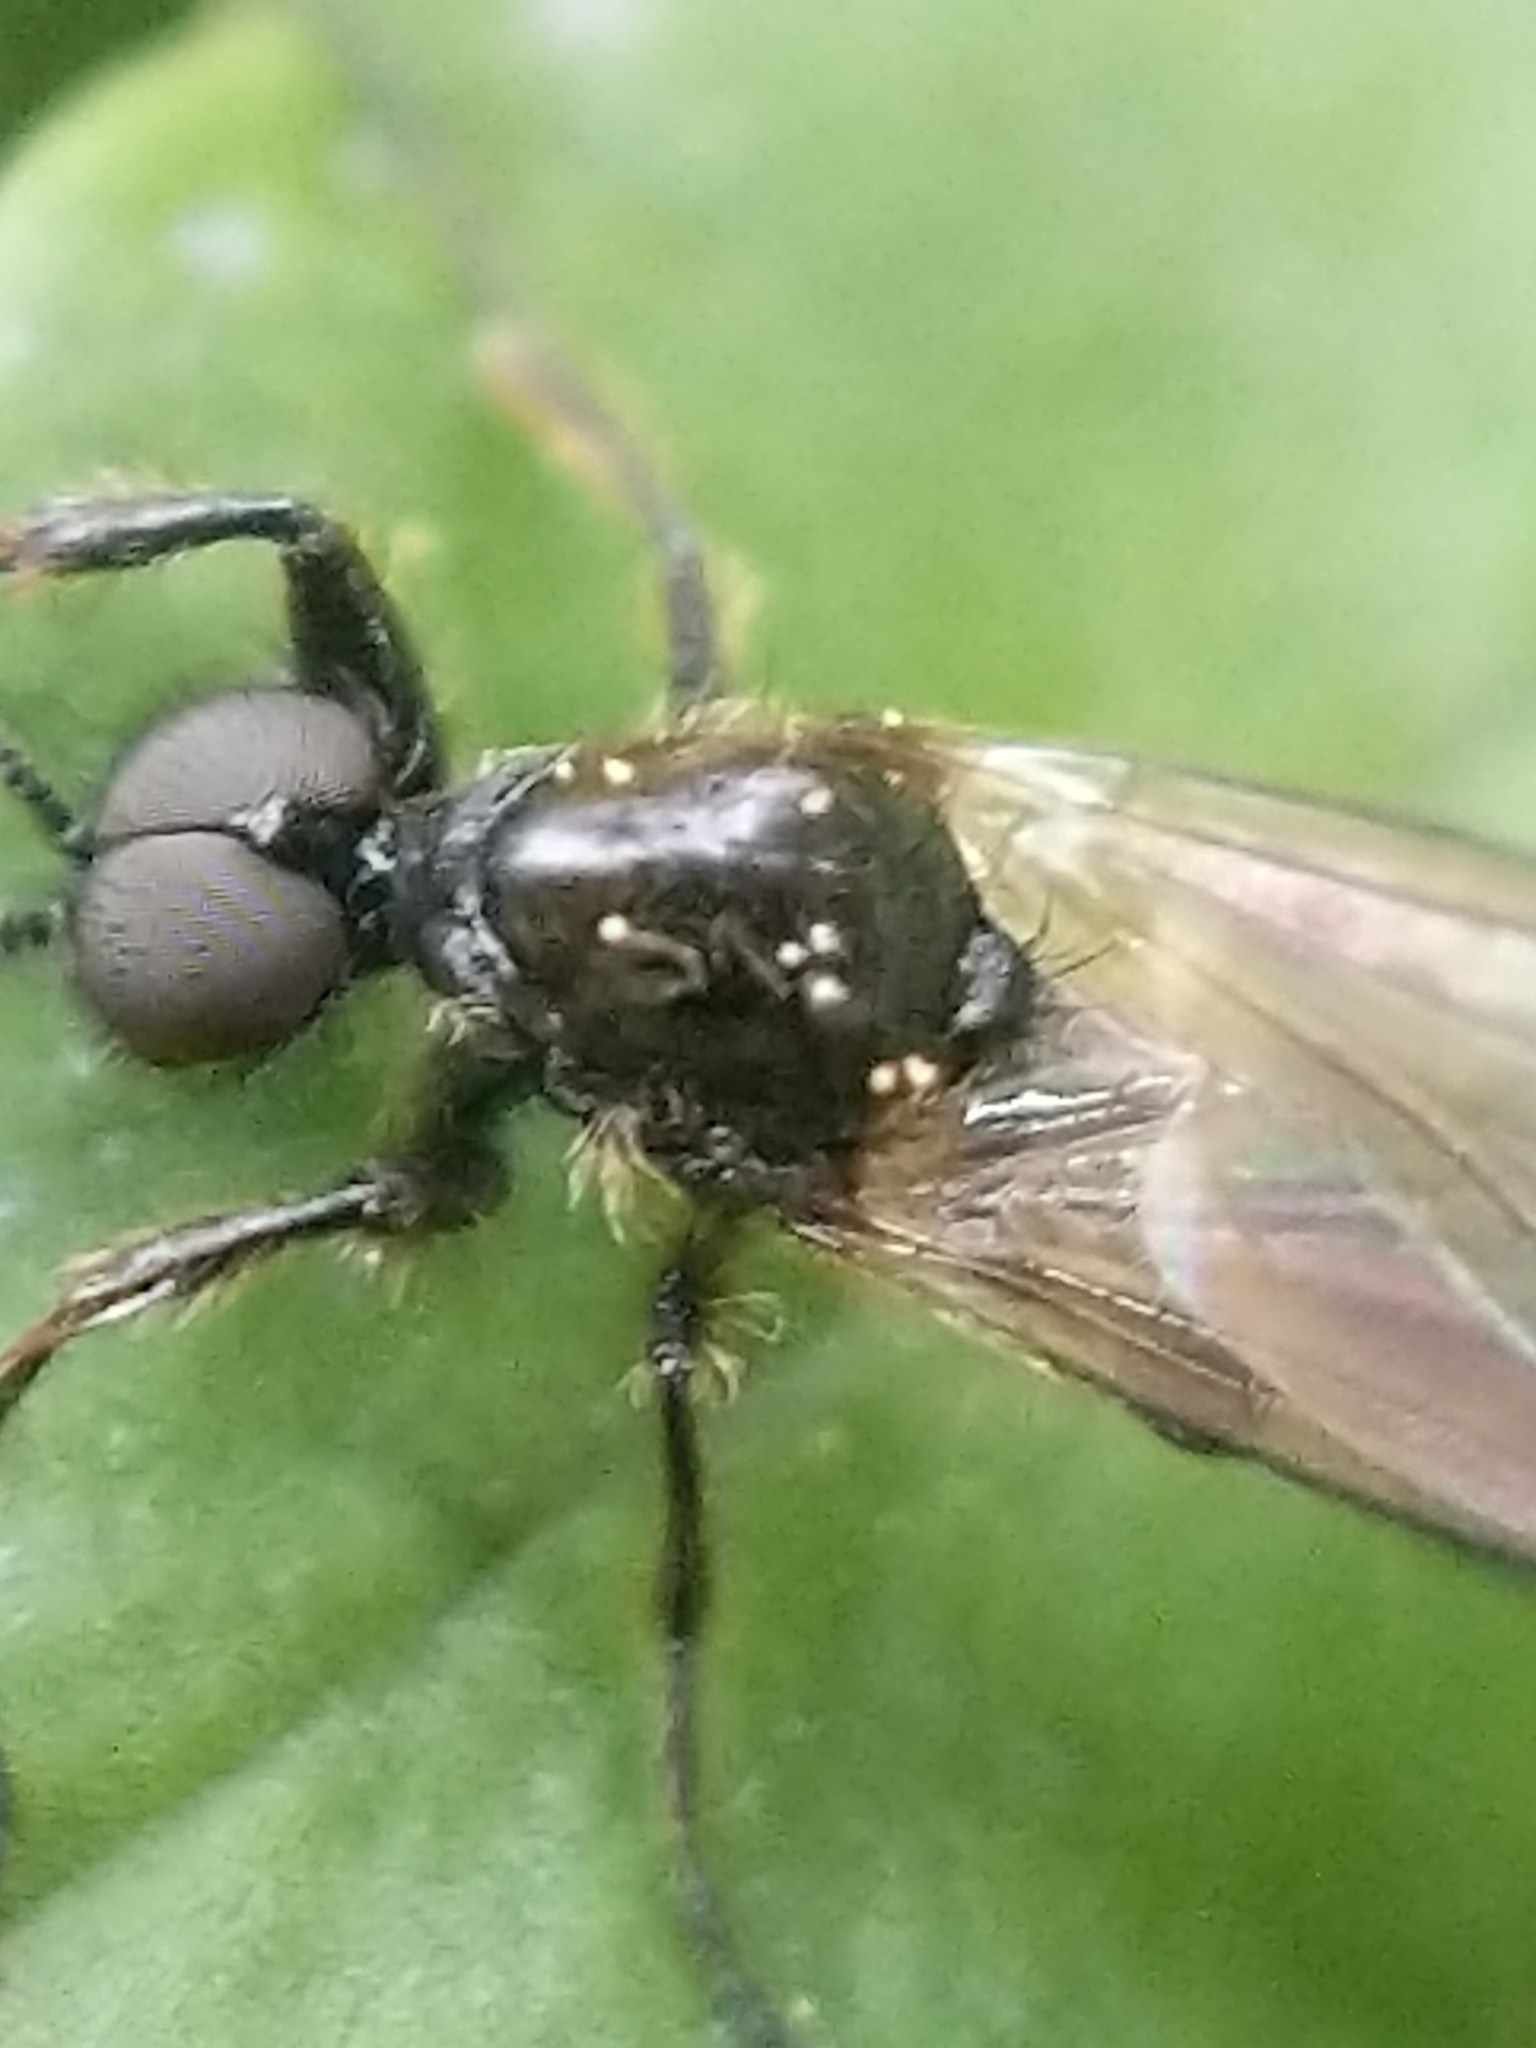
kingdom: Animalia
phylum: Arthropoda
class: Insecta
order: Diptera
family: Bibionidae
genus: Bibio
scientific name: Bibio longipes
